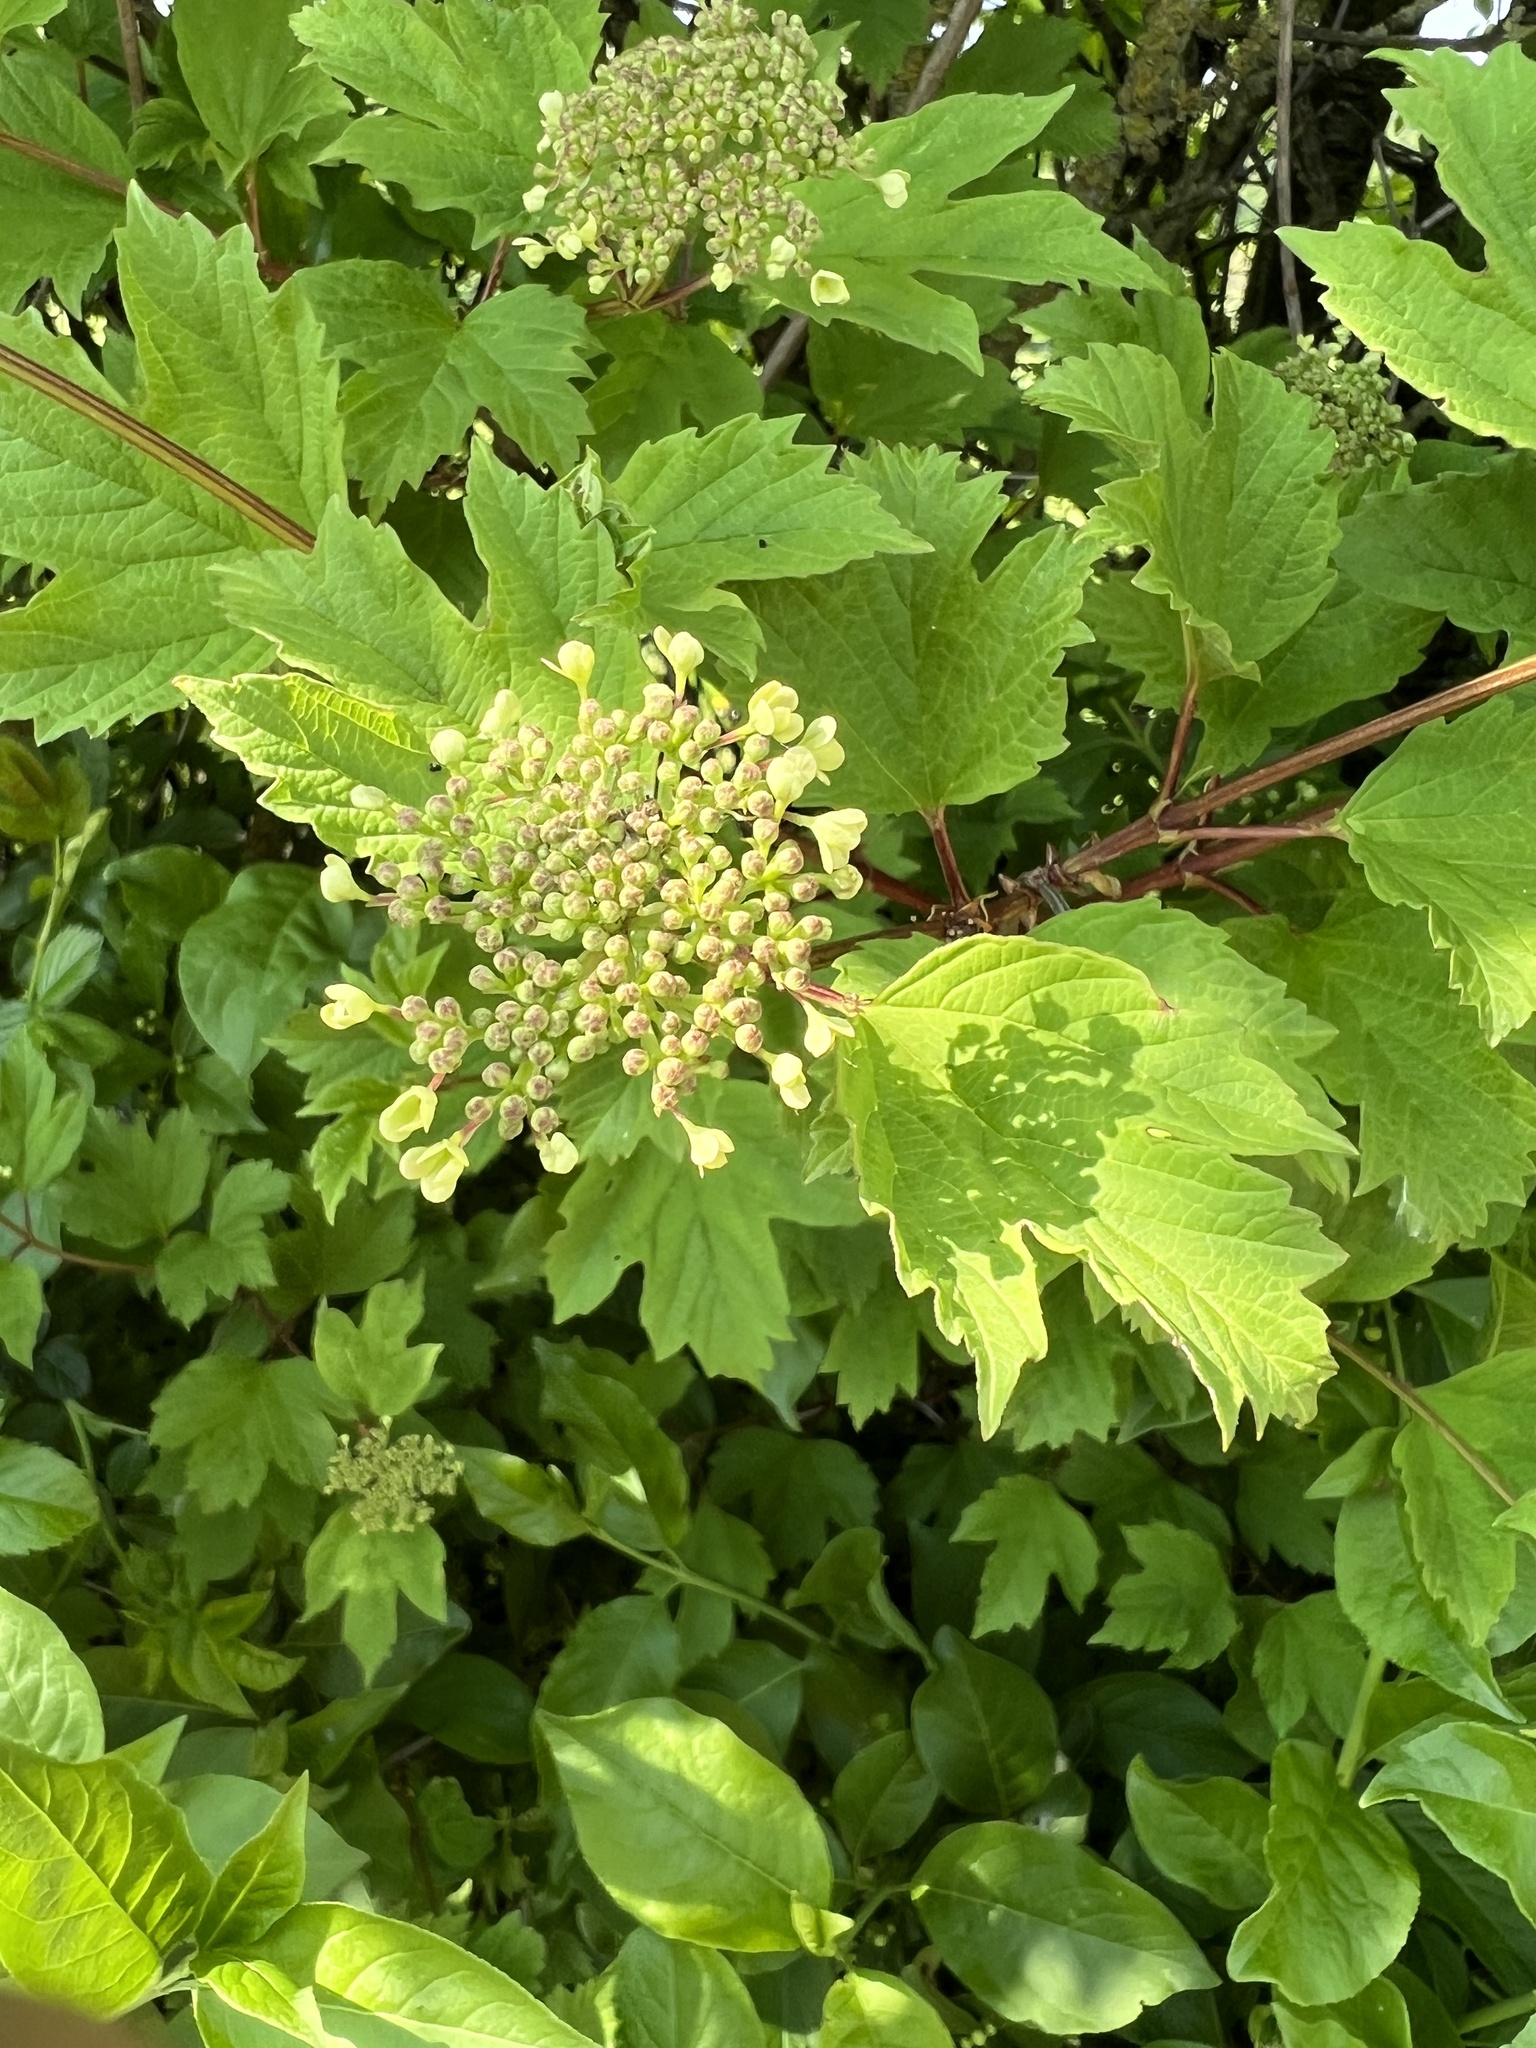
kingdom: Plantae
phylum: Tracheophyta
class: Magnoliopsida
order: Dipsacales
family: Viburnaceae
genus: Viburnum
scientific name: Viburnum opulus
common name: Guelder-rose
